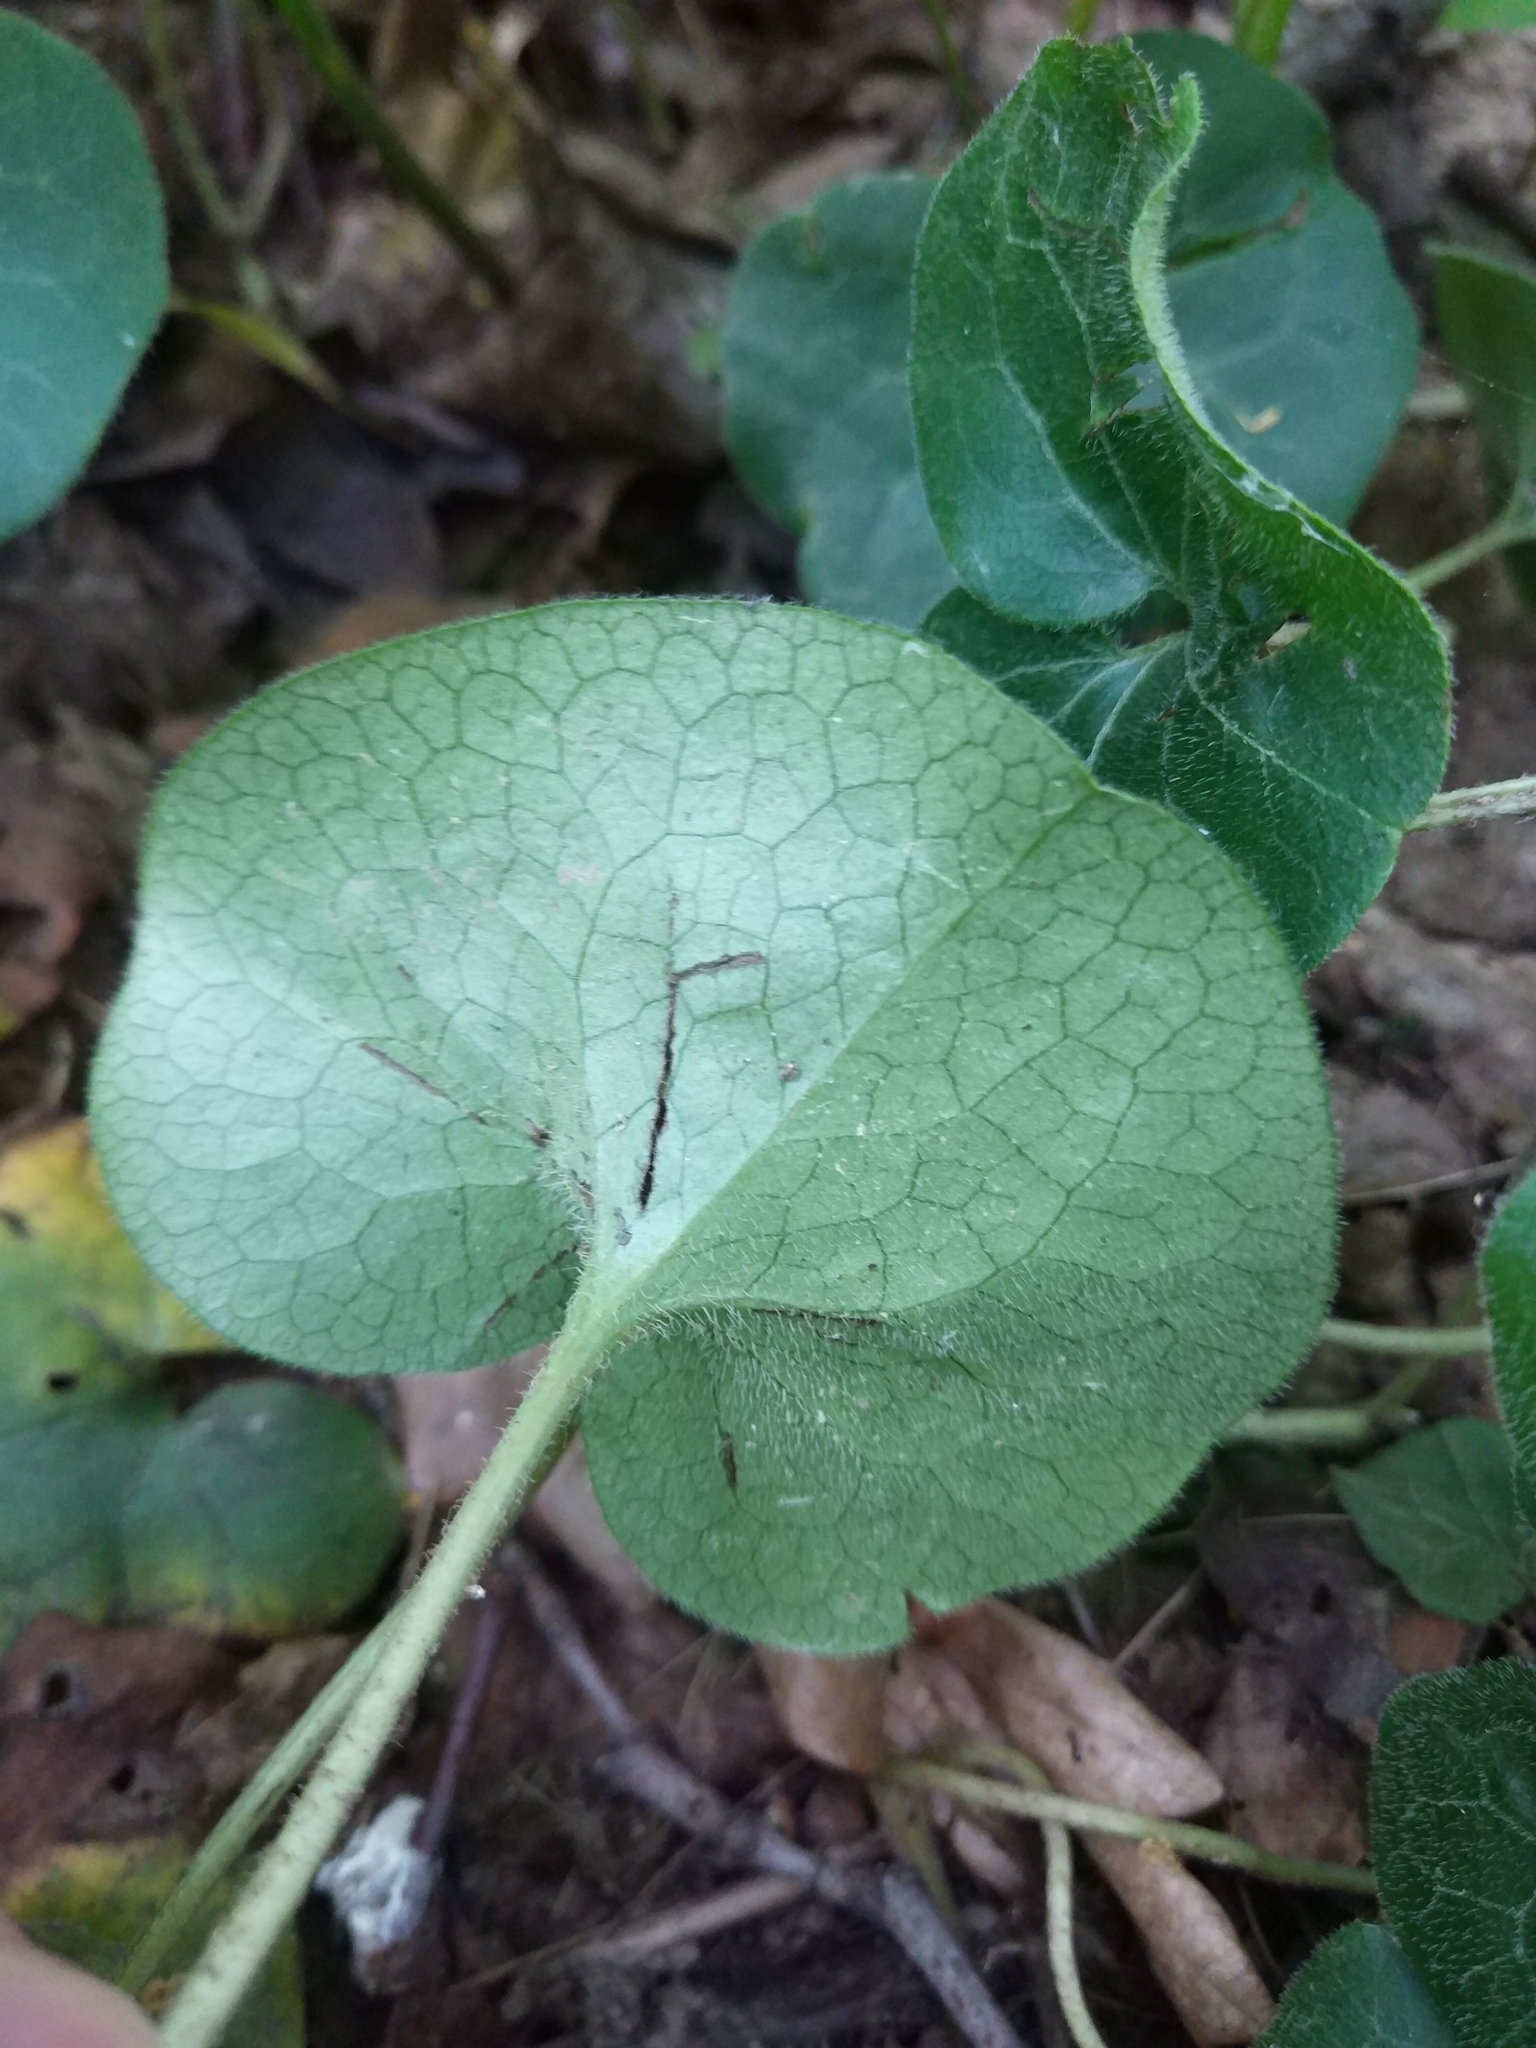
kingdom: Plantae
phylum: Tracheophyta
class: Magnoliopsida
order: Piperales
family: Aristolochiaceae
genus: Asarum
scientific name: Asarum europaeum
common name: Asarabacca
